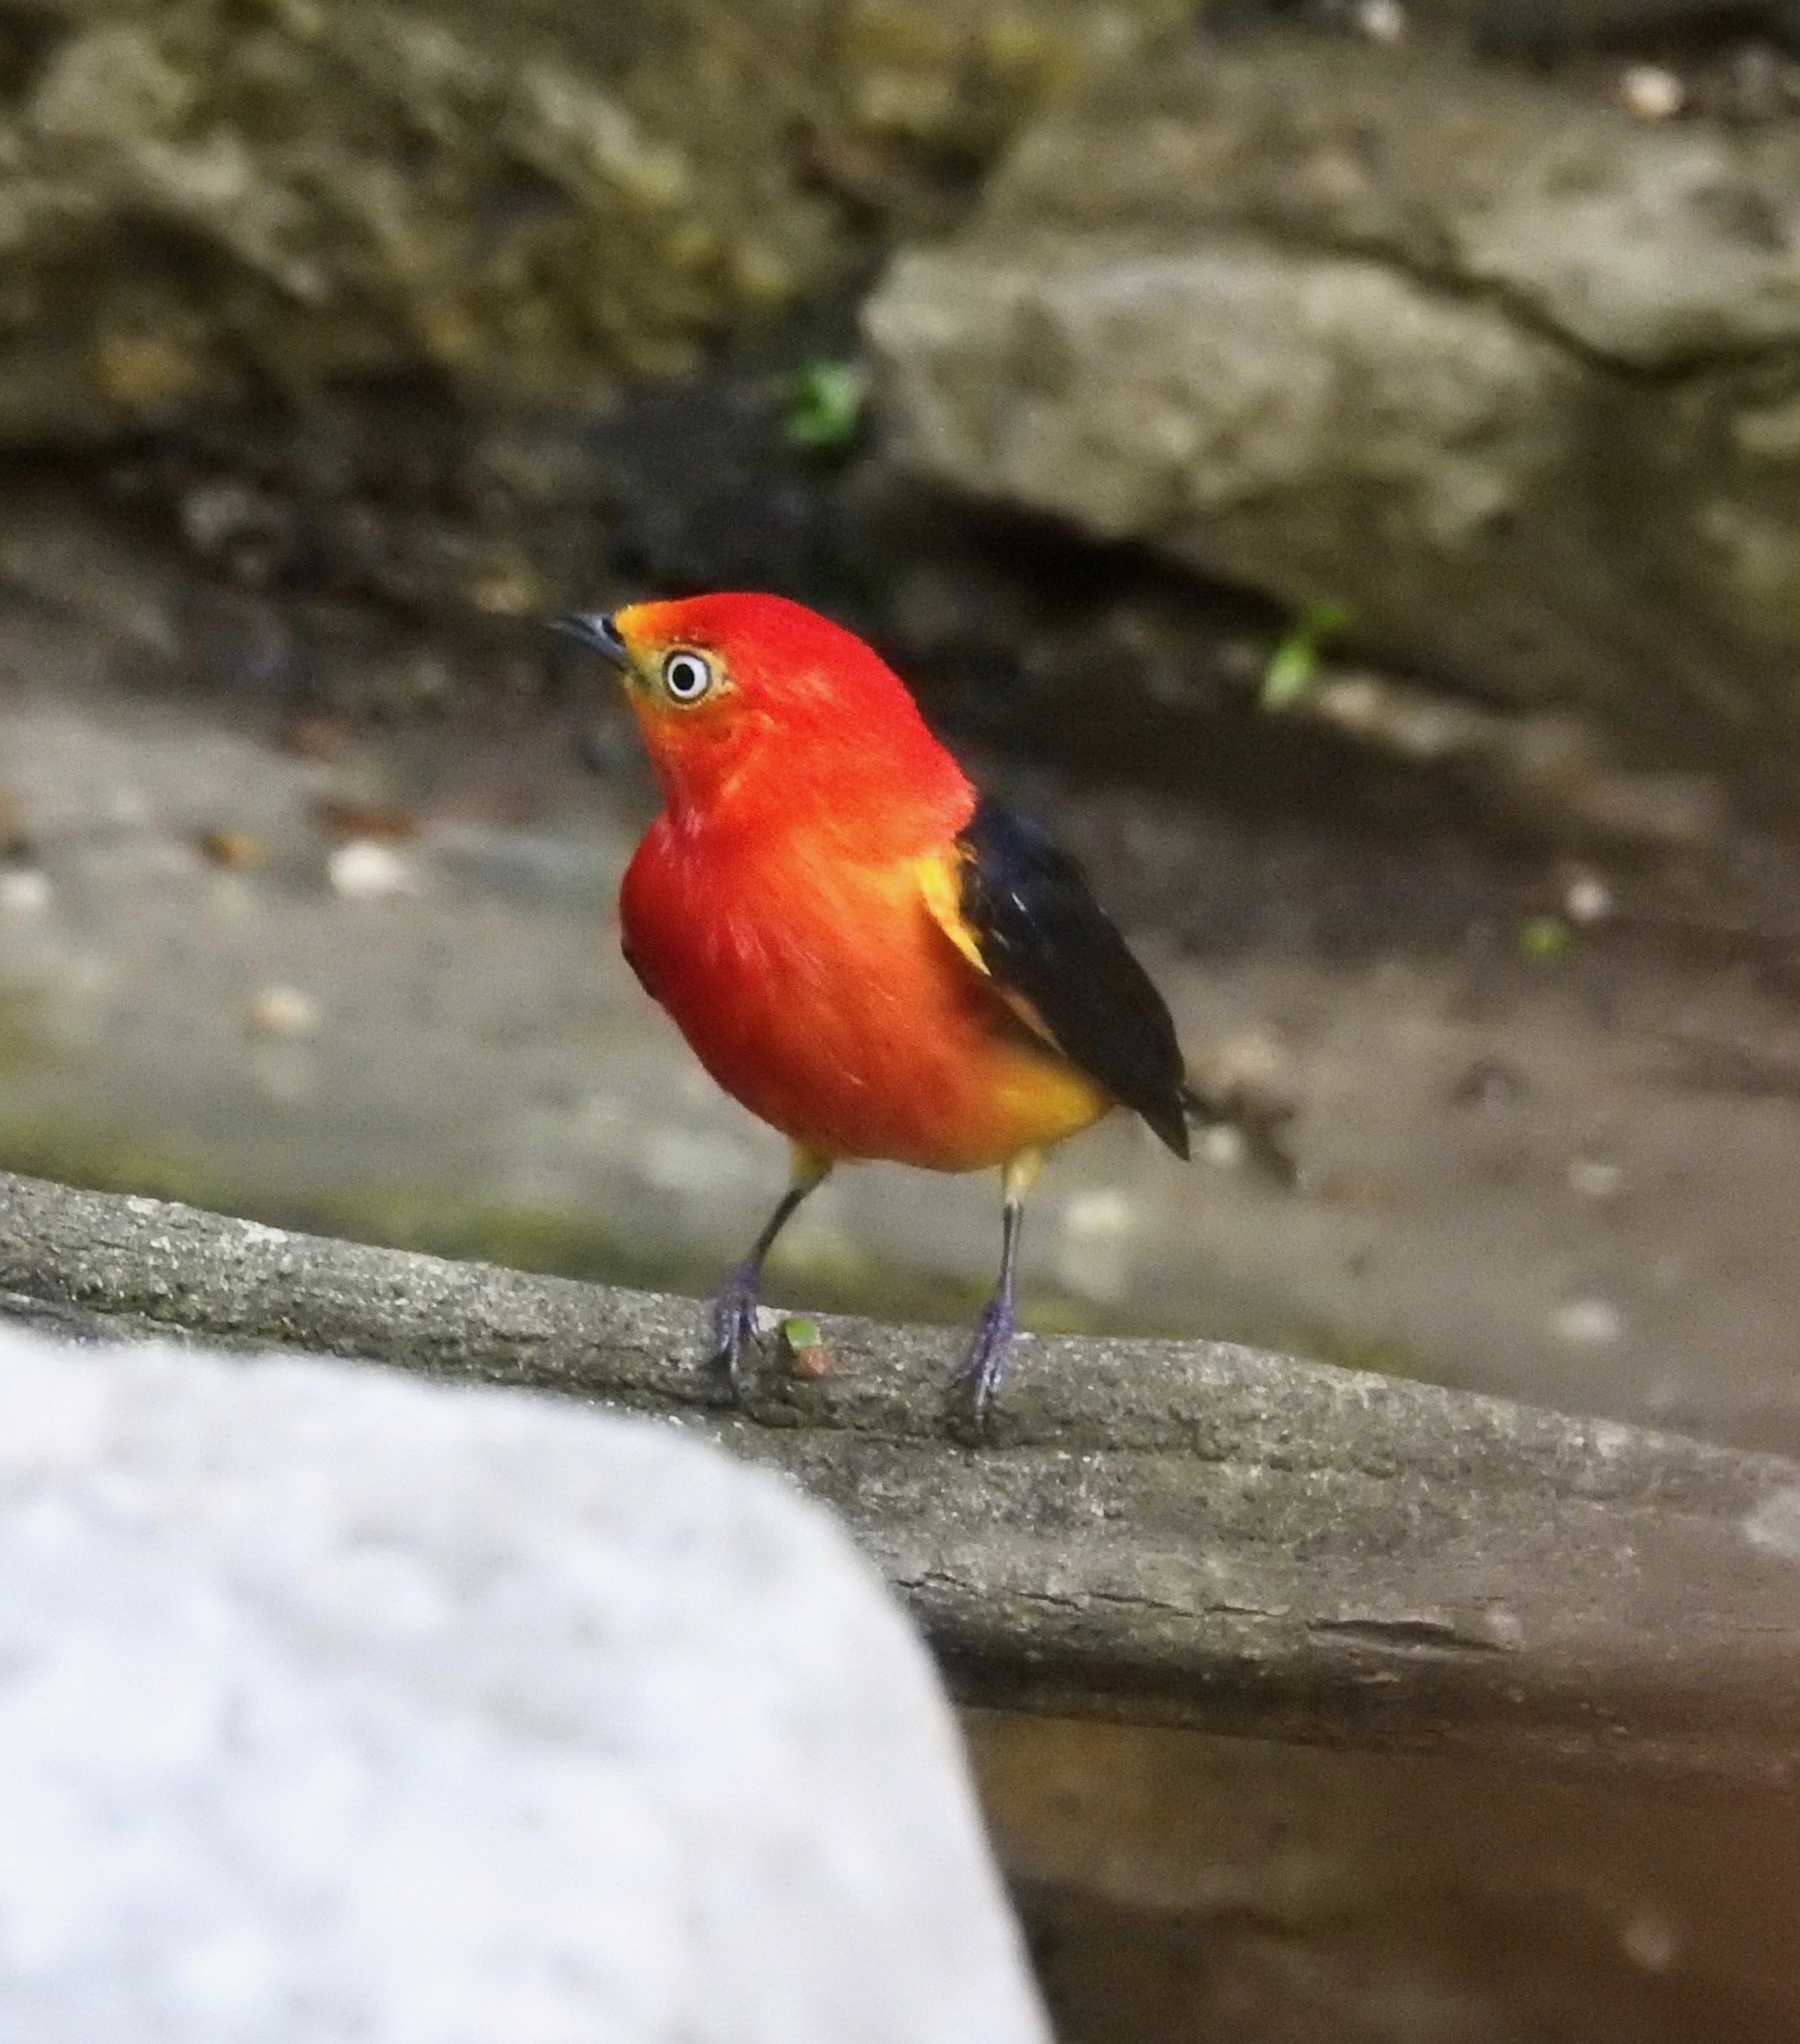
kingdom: Animalia
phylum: Chordata
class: Aves
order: Passeriformes
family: Pipridae
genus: Pipra
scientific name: Pipra fasciicauda
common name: Band-tailed manakin
